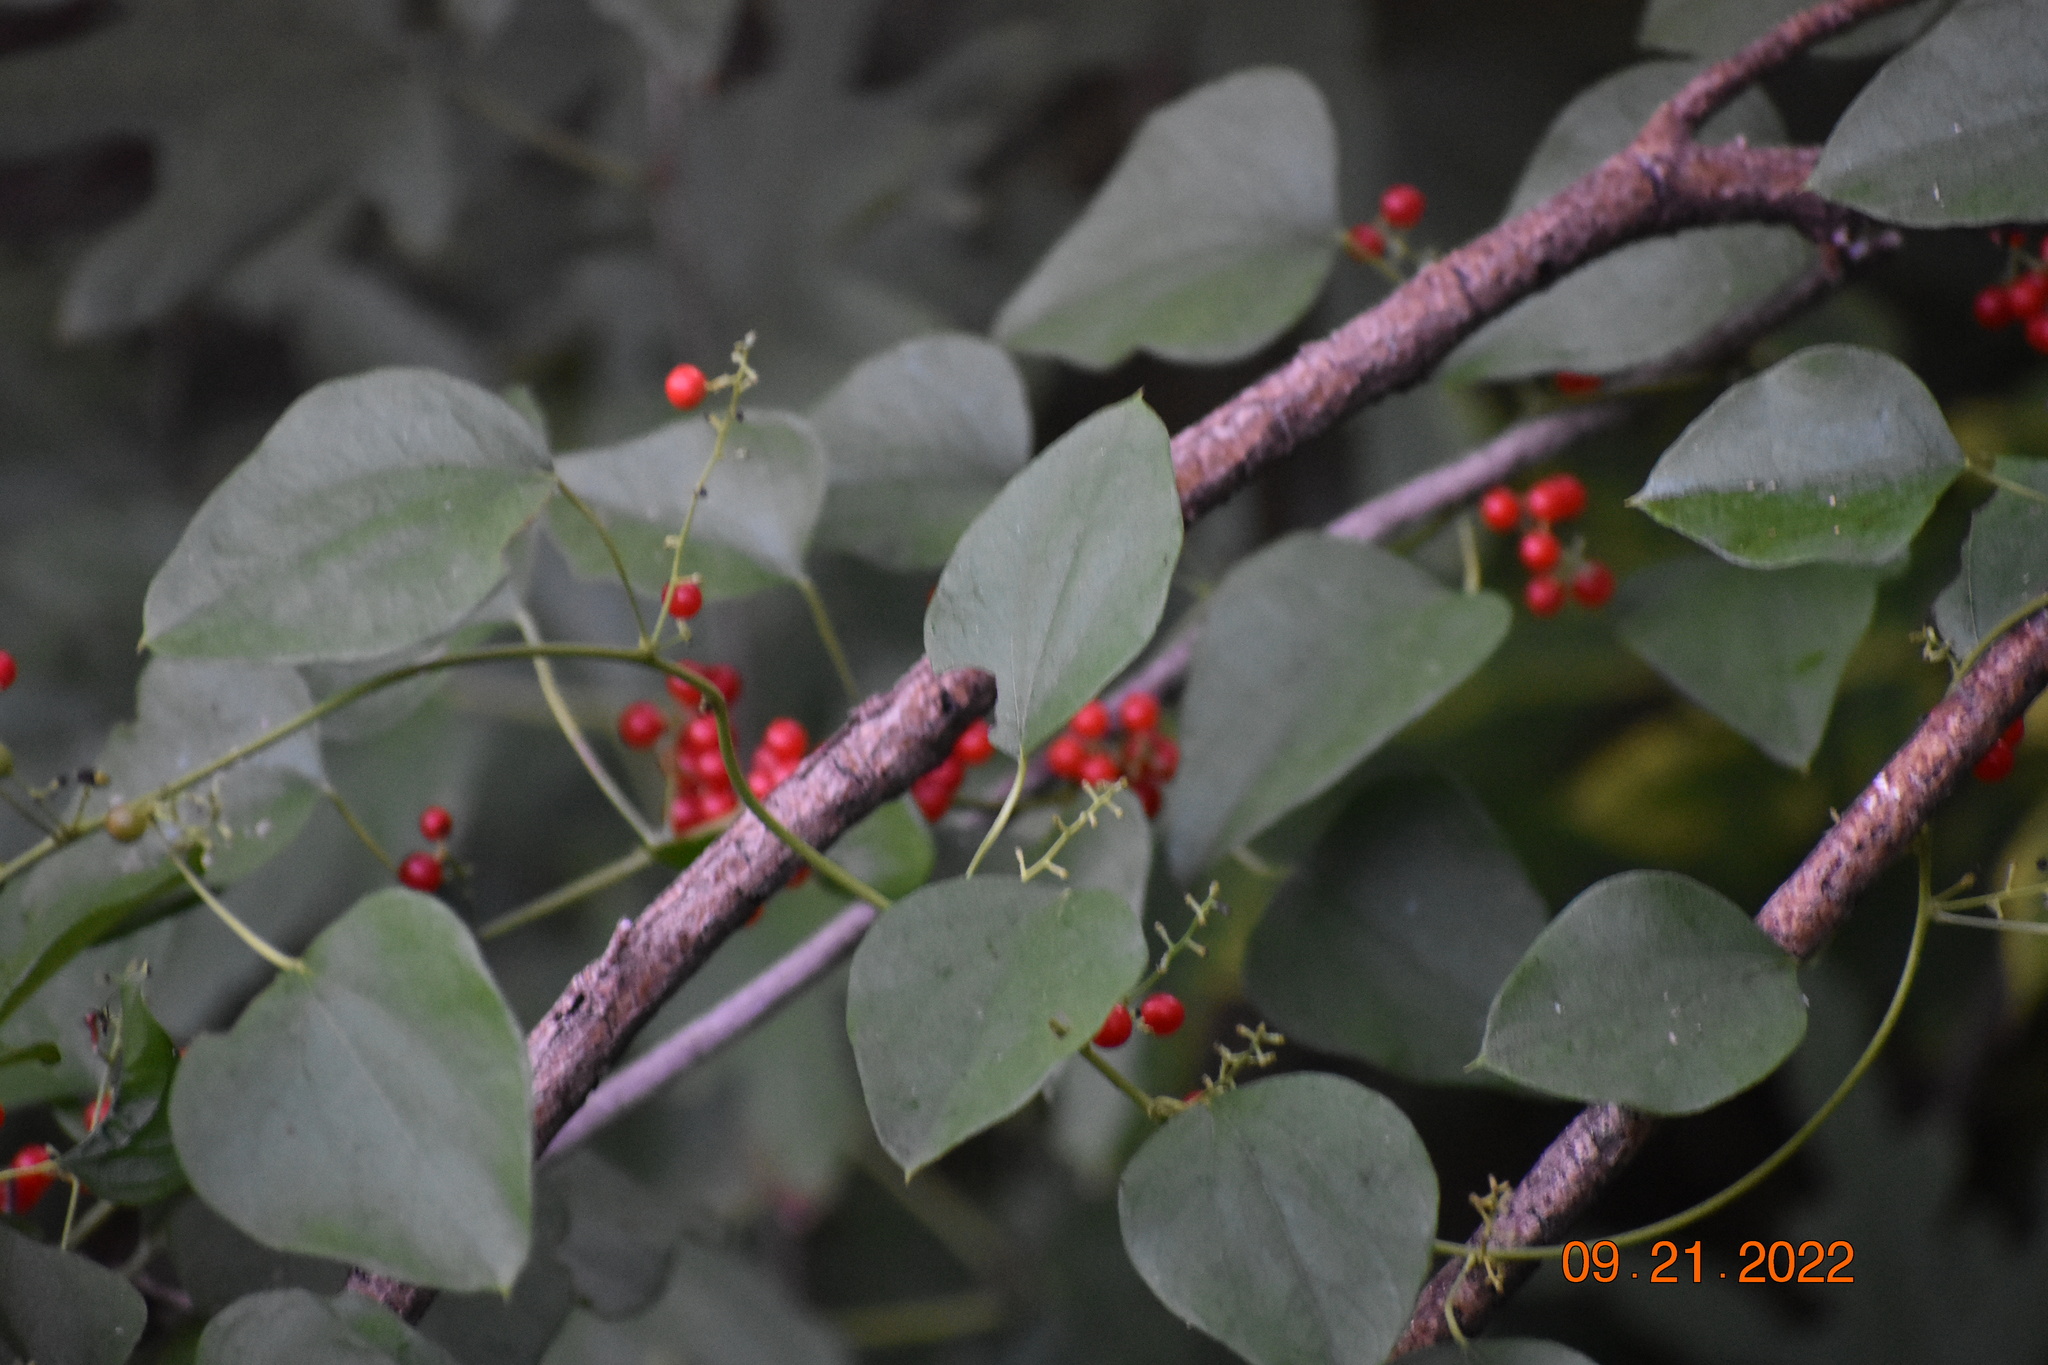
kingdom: Plantae
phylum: Tracheophyta
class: Magnoliopsida
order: Ranunculales
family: Menispermaceae
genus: Cocculus
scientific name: Cocculus carolinus
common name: Carolina moonseed
